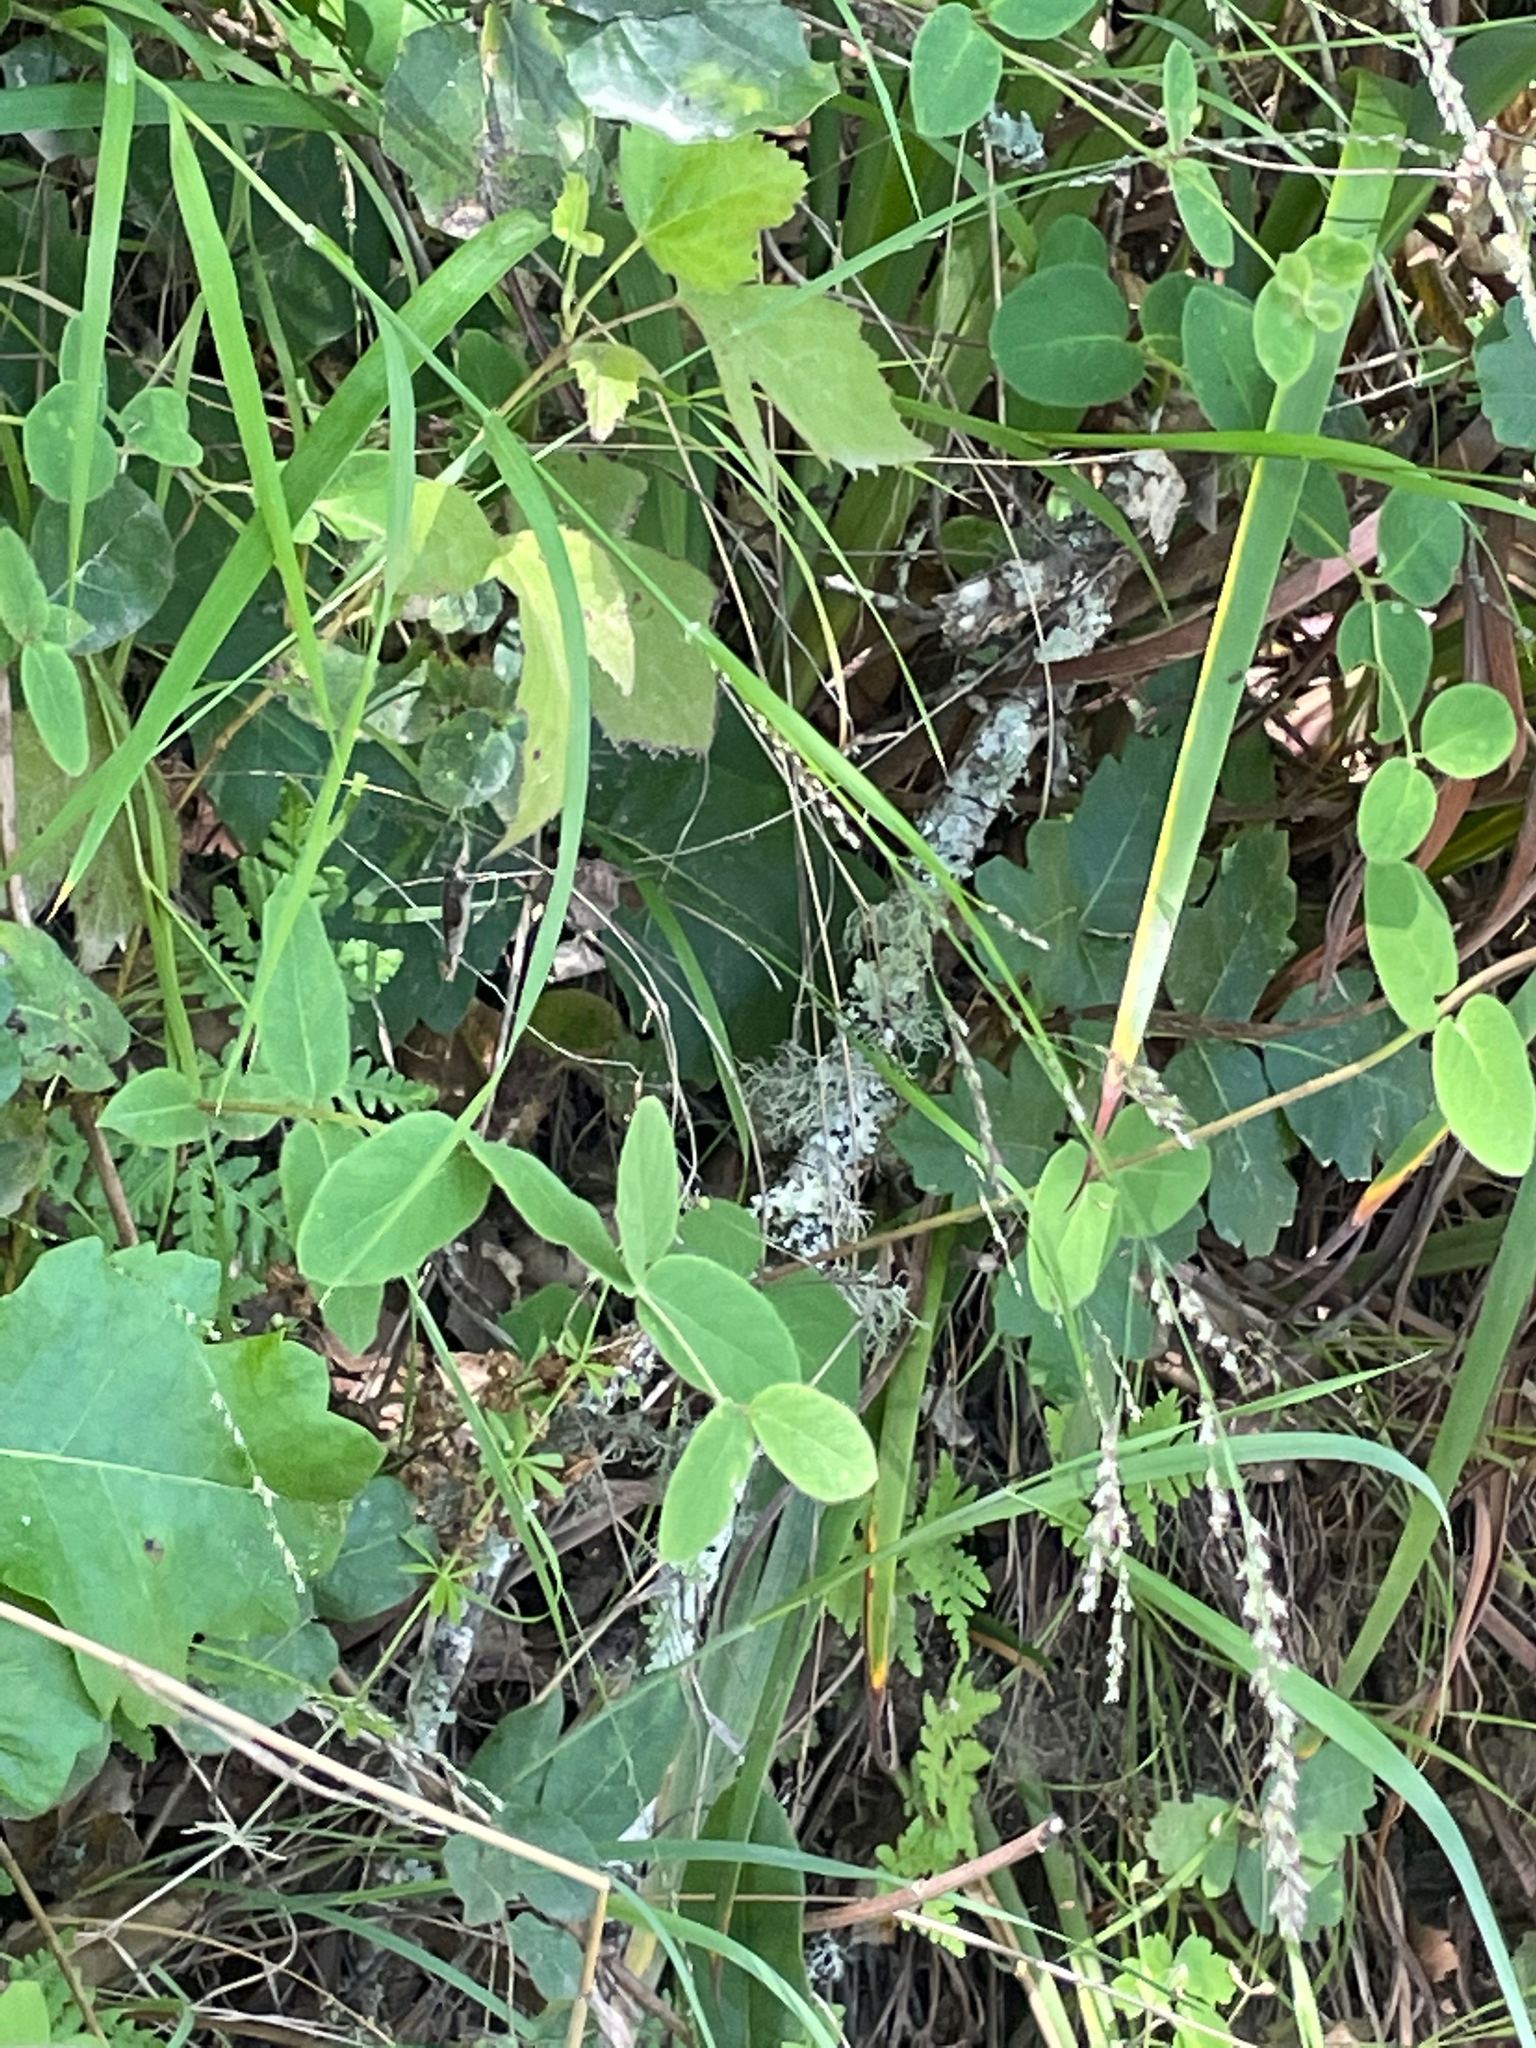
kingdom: Plantae
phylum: Tracheophyta
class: Liliopsida
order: Poales
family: Poaceae
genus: Melica
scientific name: Melica imperfecta
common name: California melic
